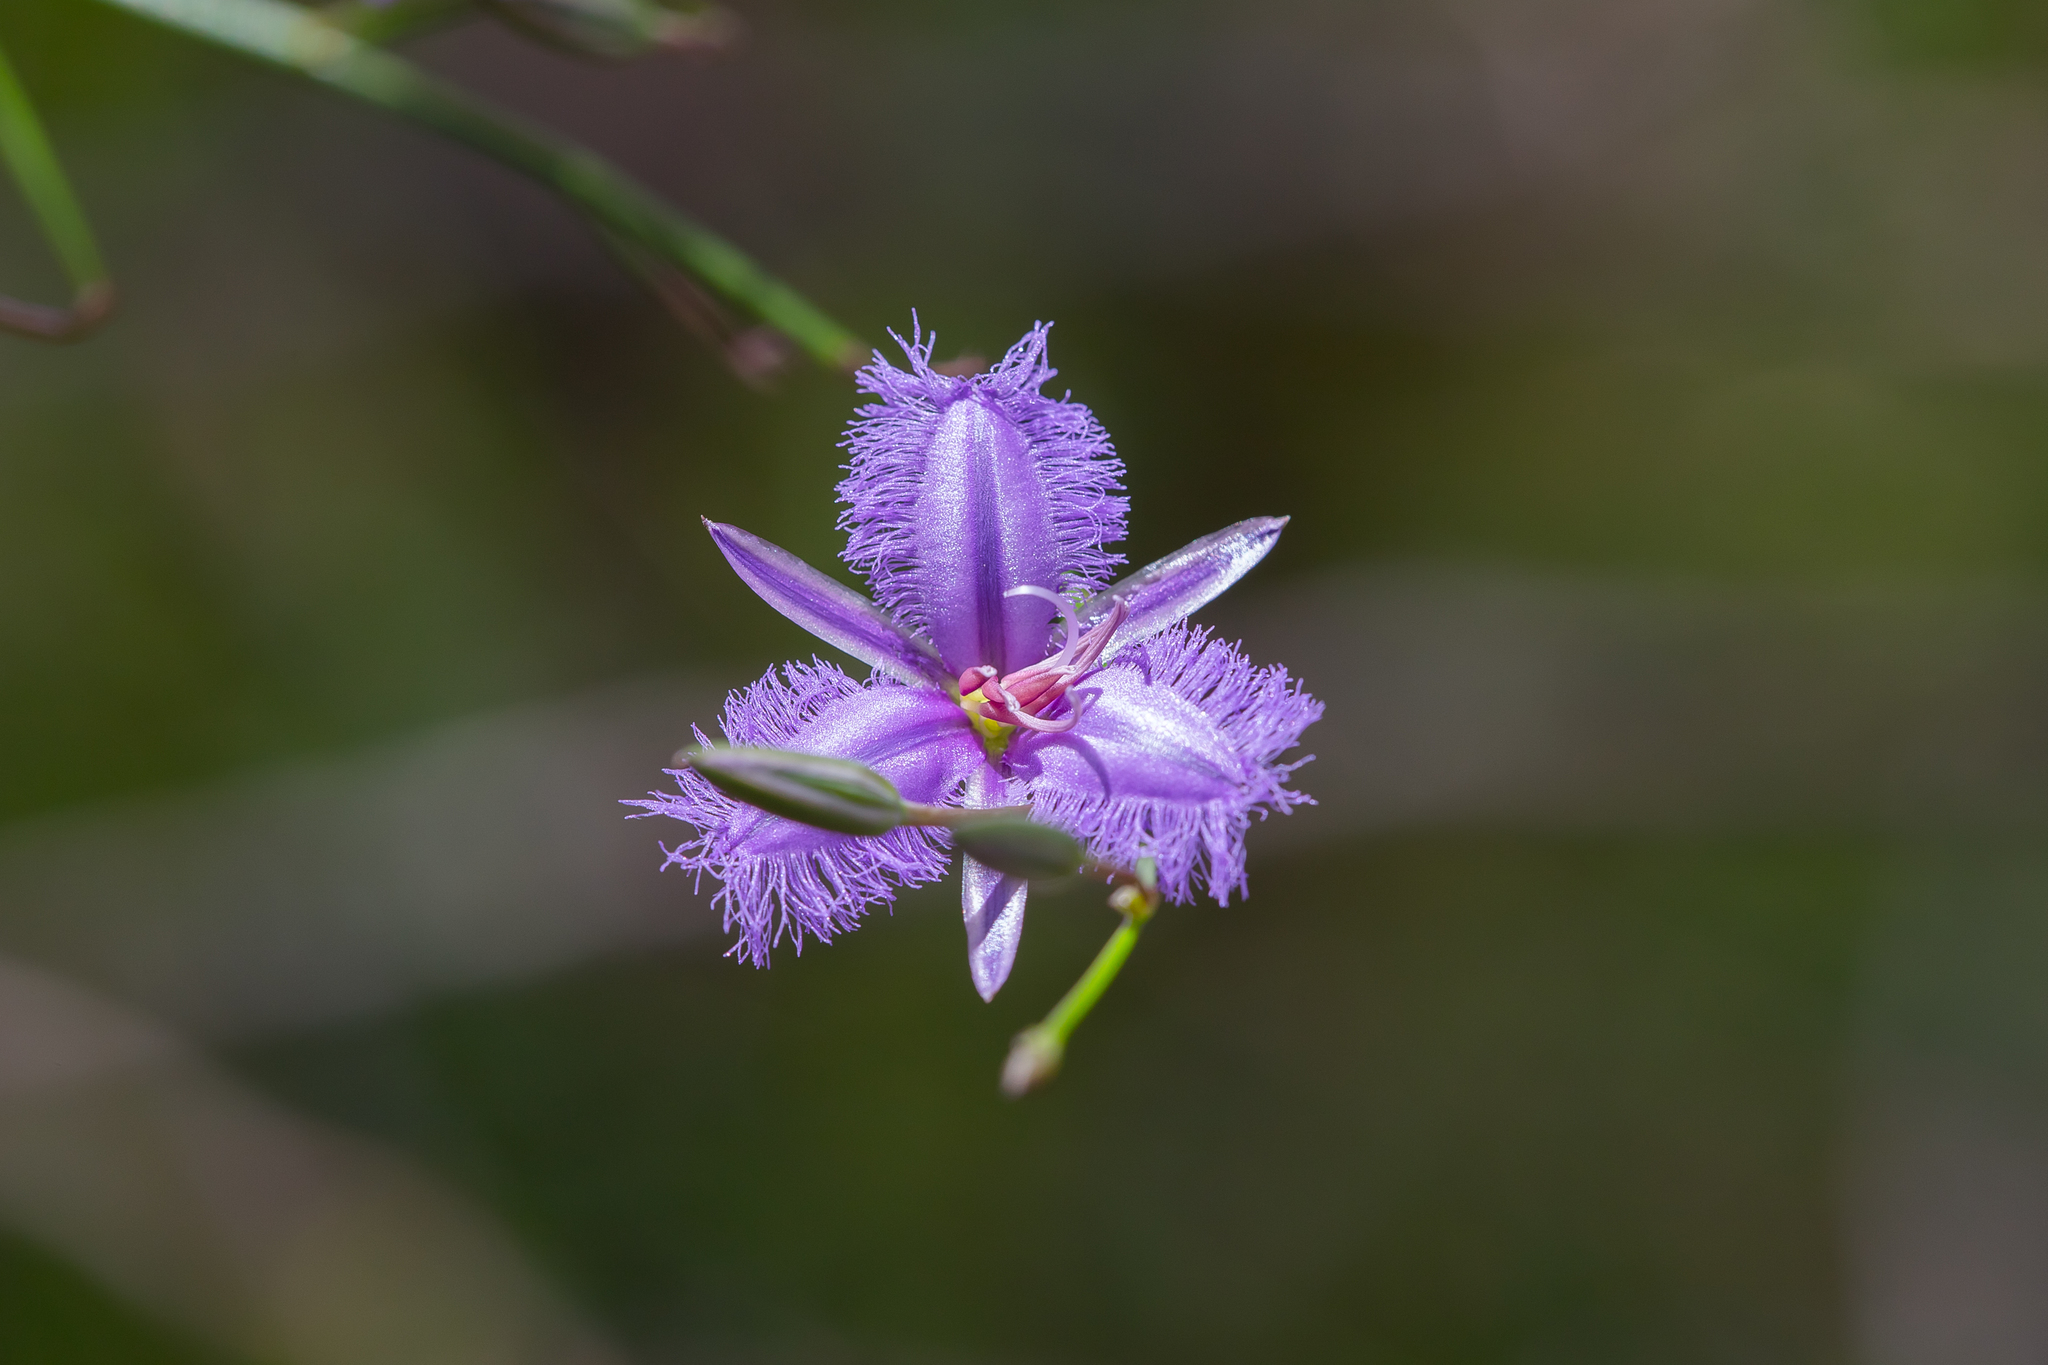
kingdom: Plantae
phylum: Tracheophyta
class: Liliopsida
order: Asparagales
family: Asparagaceae
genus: Thysanotus
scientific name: Thysanotus racemoides
